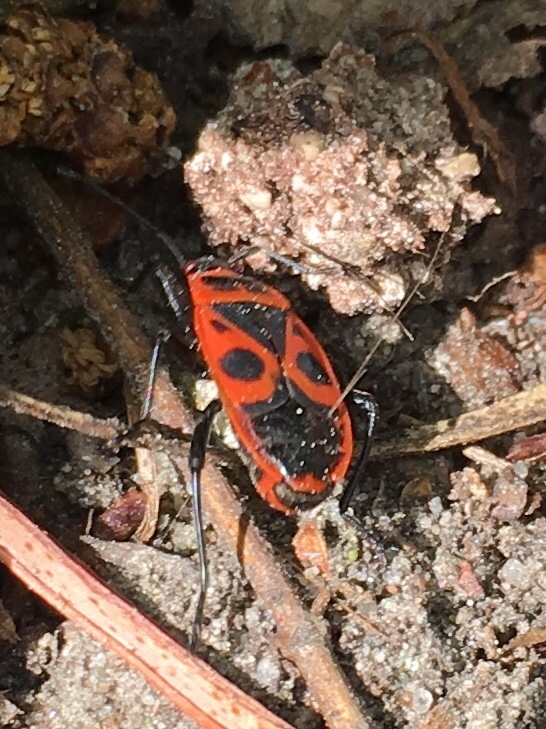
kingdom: Animalia
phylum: Arthropoda
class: Insecta
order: Hemiptera
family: Pyrrhocoridae
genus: Pyrrhocoris
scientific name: Pyrrhocoris apterus
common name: Firebug
